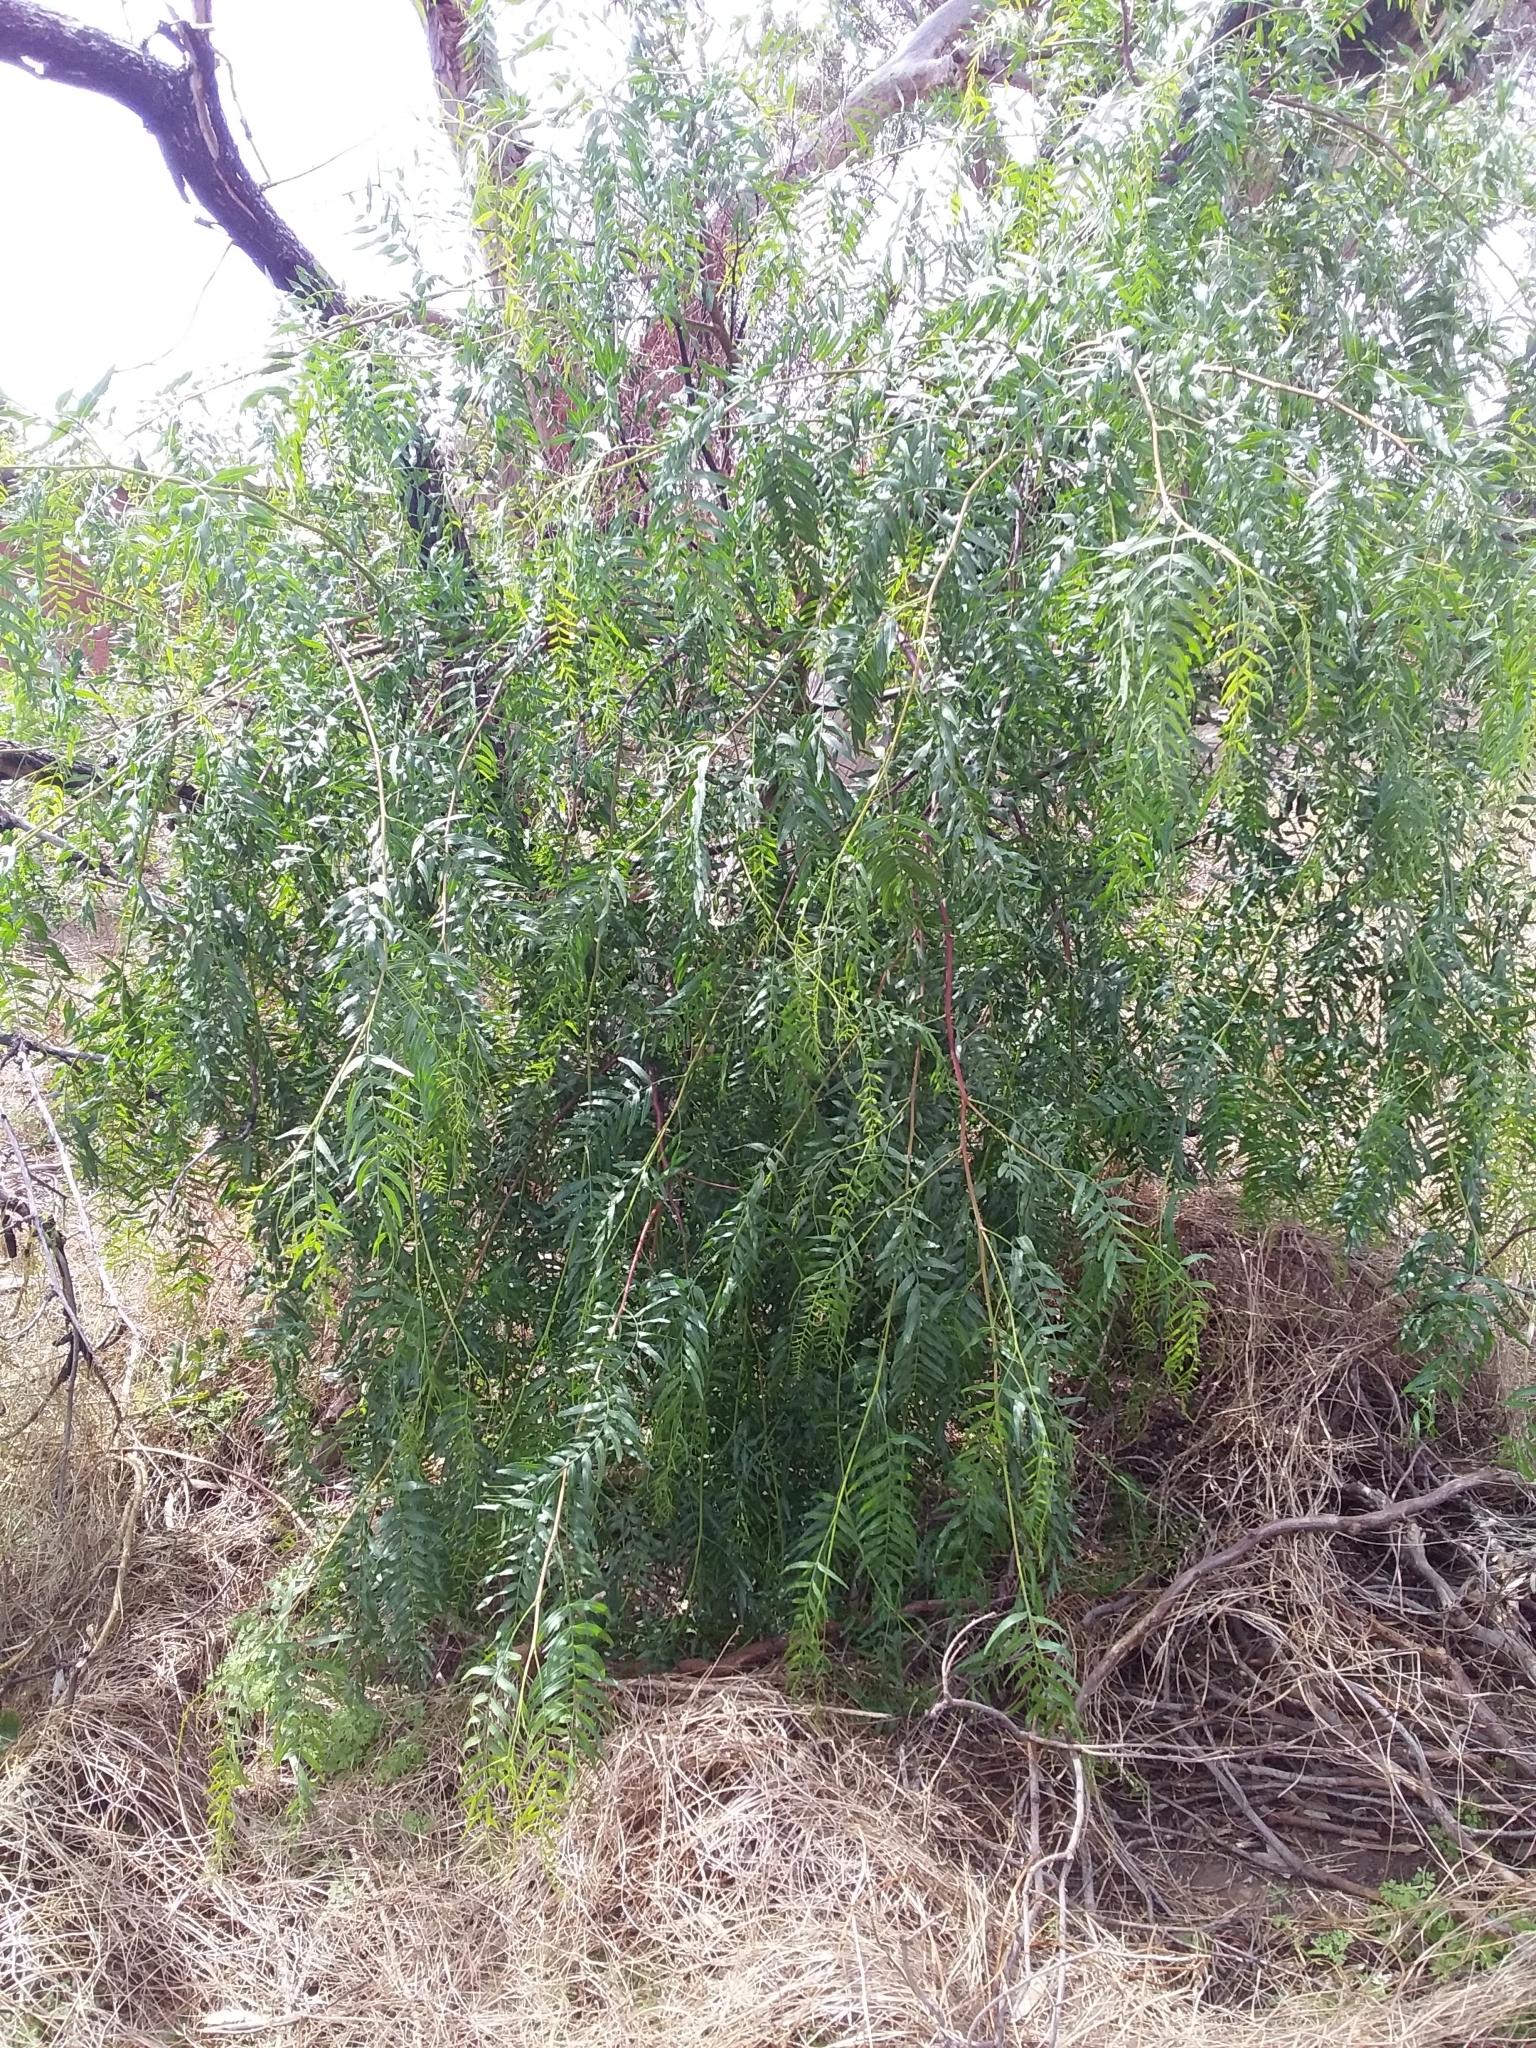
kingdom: Plantae
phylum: Tracheophyta
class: Magnoliopsida
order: Sapindales
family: Anacardiaceae
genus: Schinus
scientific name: Schinus molle
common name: Peruvian peppertree
